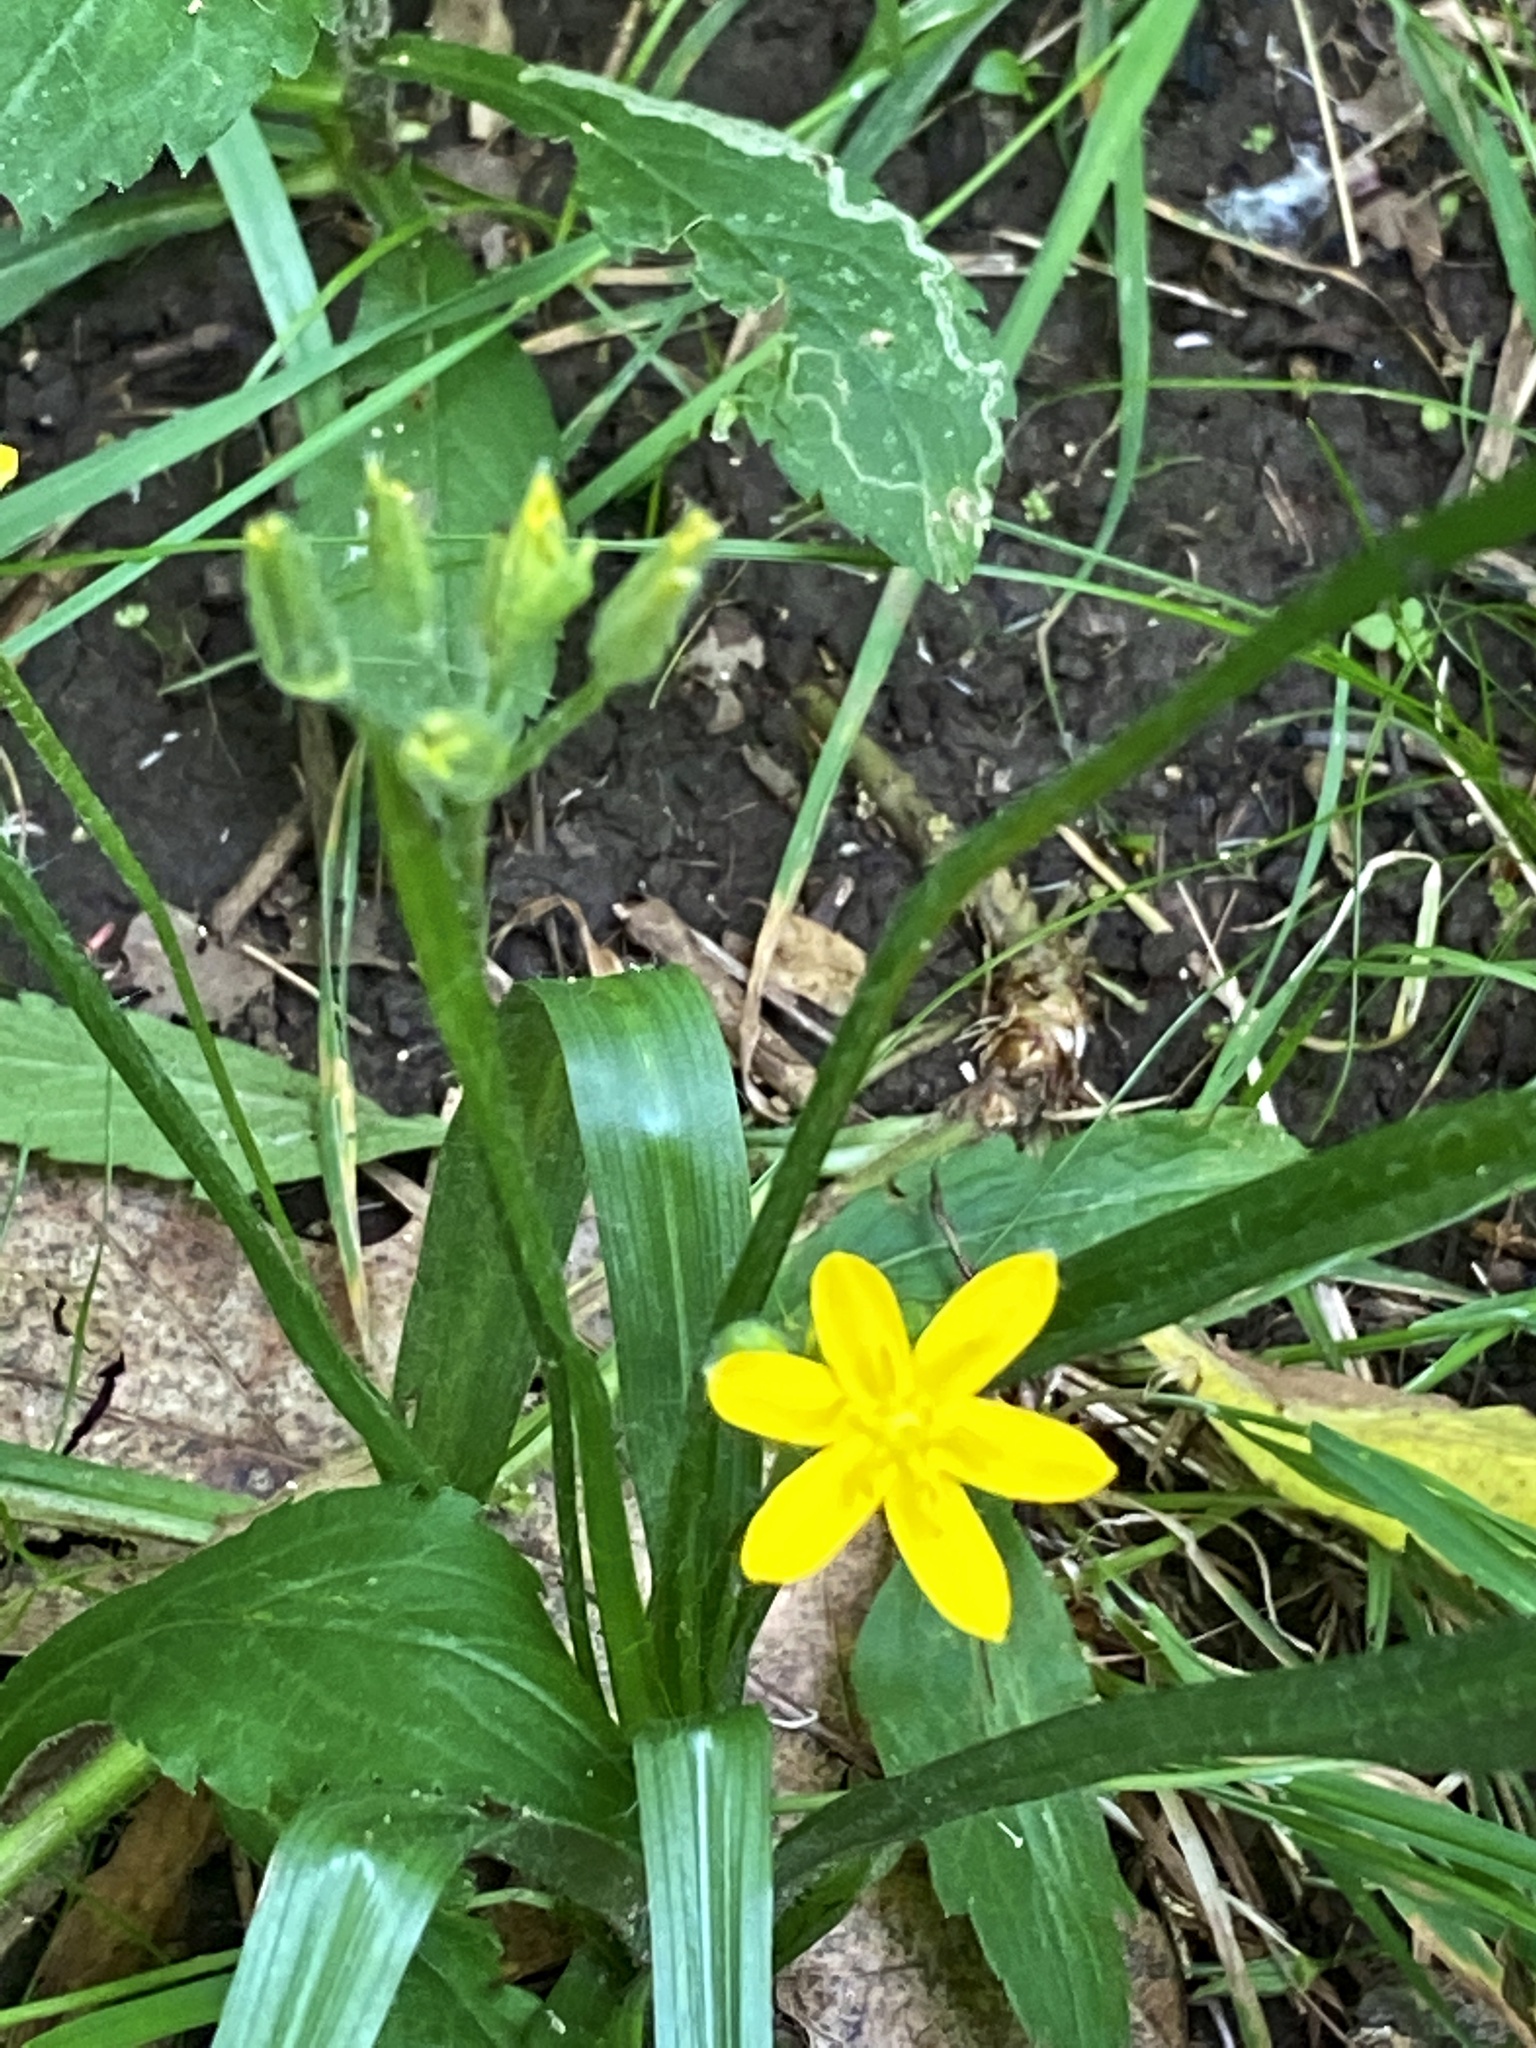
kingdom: Plantae
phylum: Tracheophyta
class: Liliopsida
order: Asparagales
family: Hypoxidaceae
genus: Hypoxis
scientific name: Hypoxis hirsuta
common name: Common goldstar
